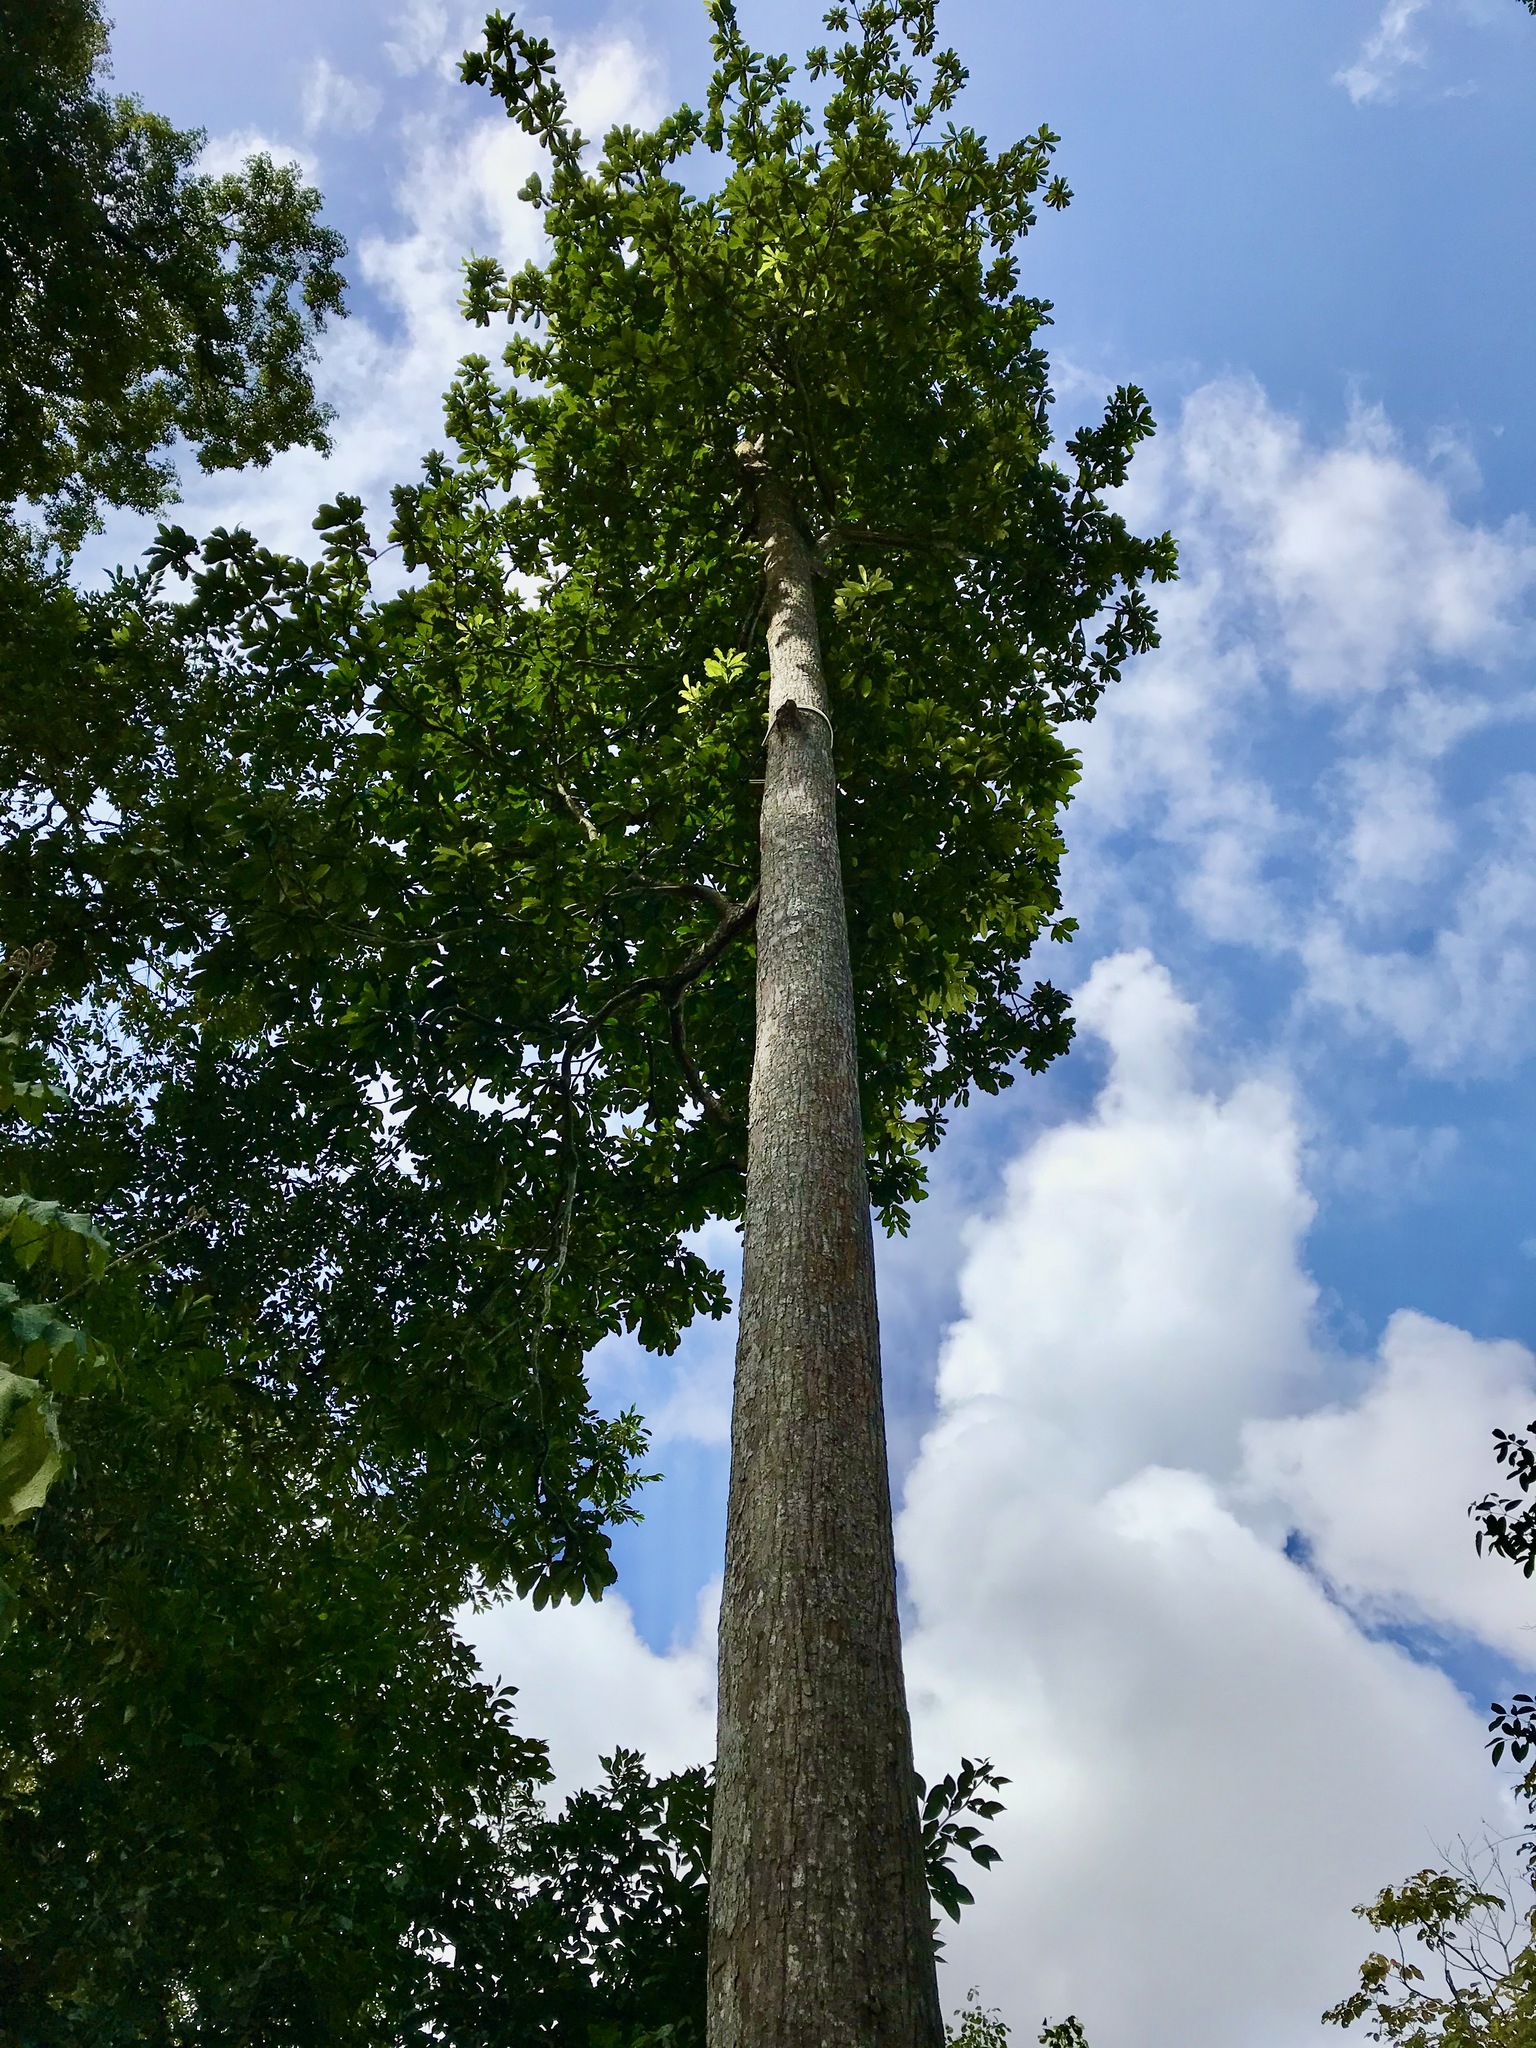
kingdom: Plantae
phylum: Tracheophyta
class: Magnoliopsida
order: Ericales
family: Sapotaceae
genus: Palaquium
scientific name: Palaquium obovatum
